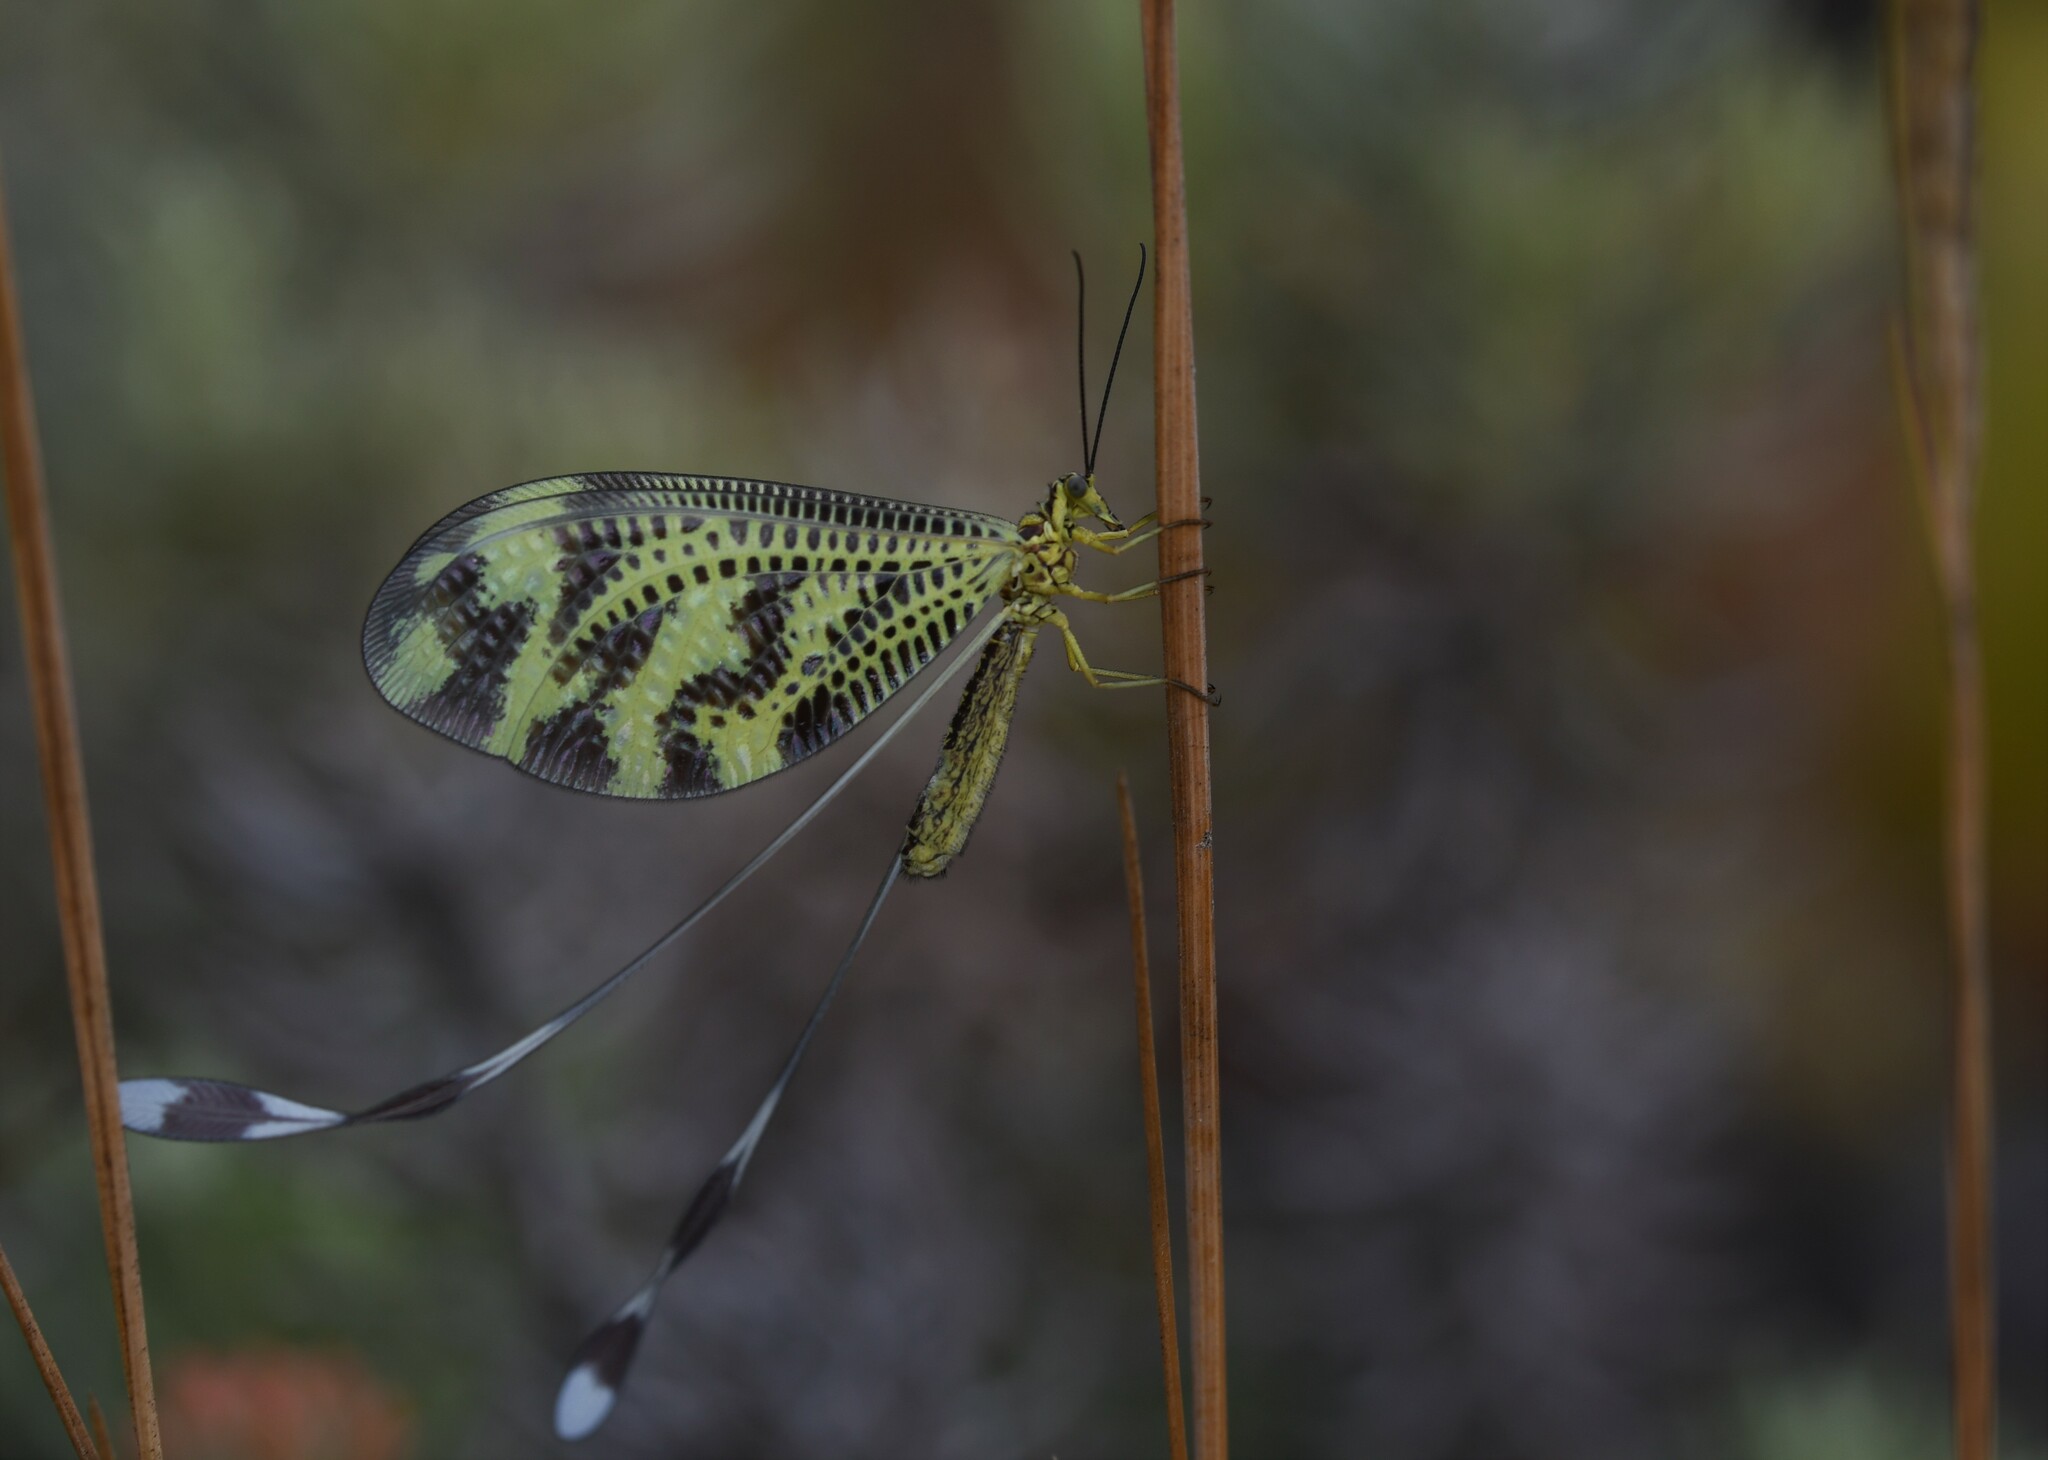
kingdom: Animalia
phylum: Arthropoda
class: Insecta
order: Neuroptera
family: Nemopteridae
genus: Nemoptera
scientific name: Nemoptera bipennis
